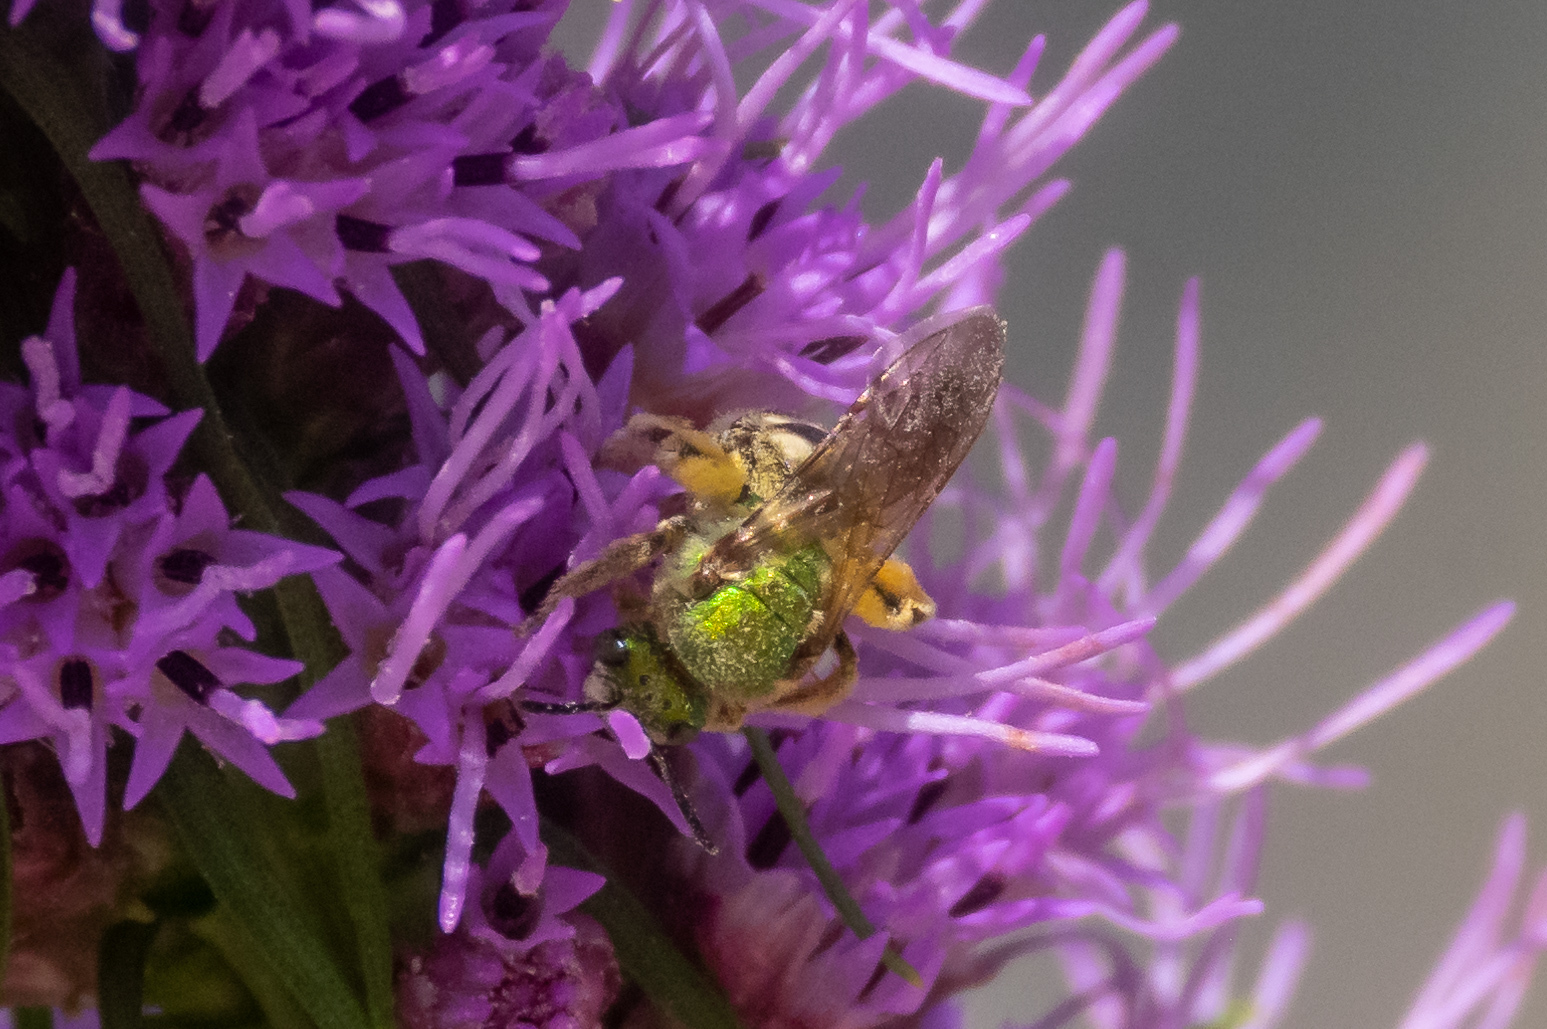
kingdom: Animalia
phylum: Arthropoda
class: Insecta
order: Hymenoptera
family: Halictidae
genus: Agapostemon
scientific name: Agapostemon virescens
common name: Bicolored striped sweat bee
